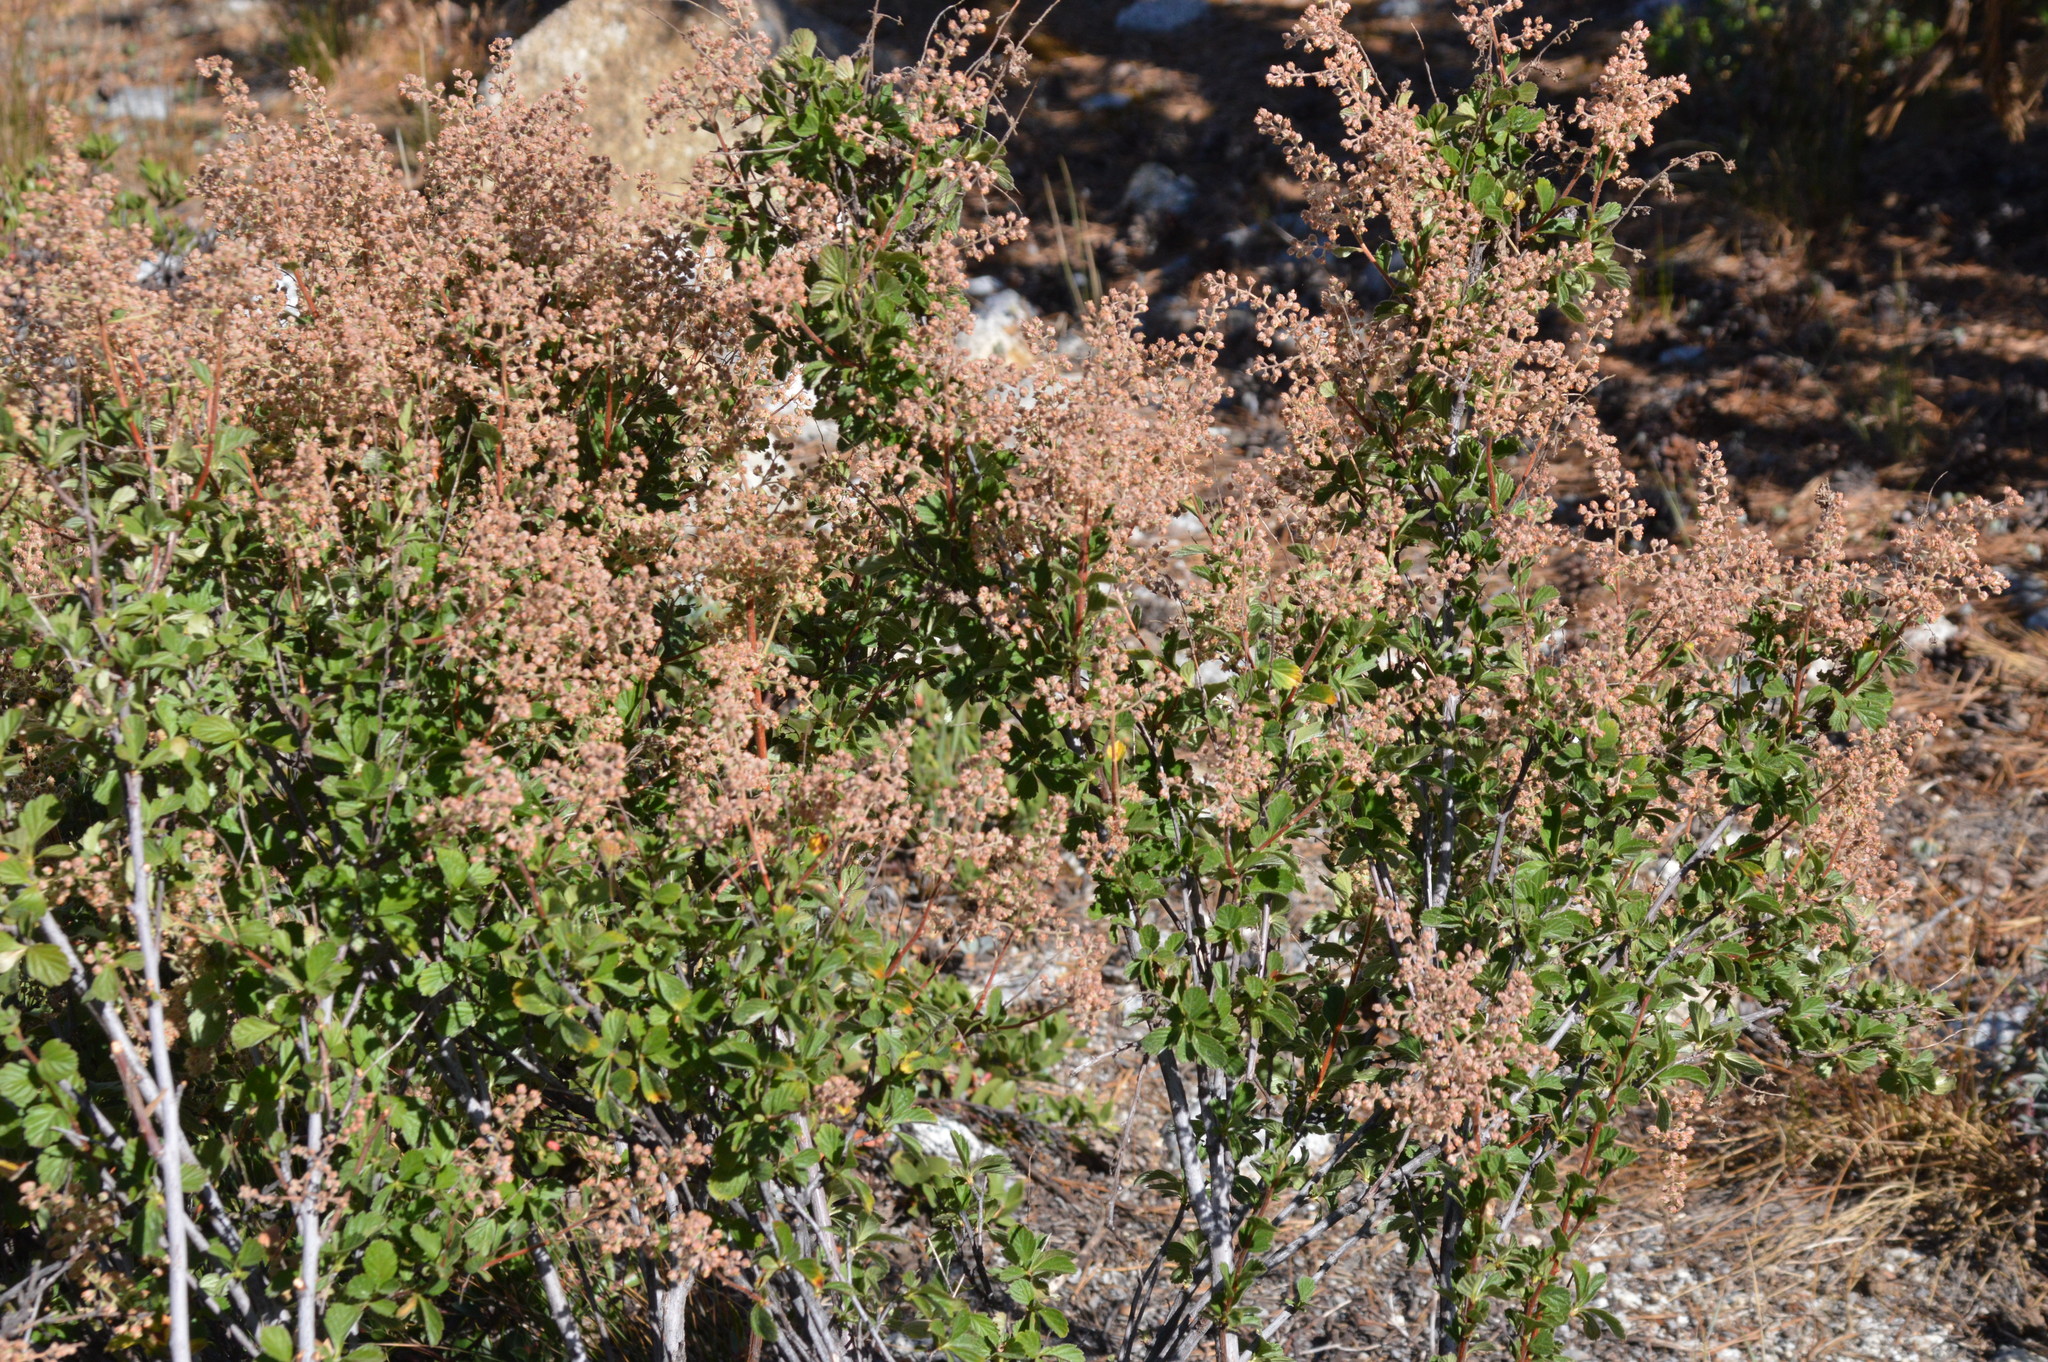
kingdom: Plantae
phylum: Tracheophyta
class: Magnoliopsida
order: Rosales
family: Rosaceae
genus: Holodiscus
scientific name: Holodiscus discolor
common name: Oceanspray
